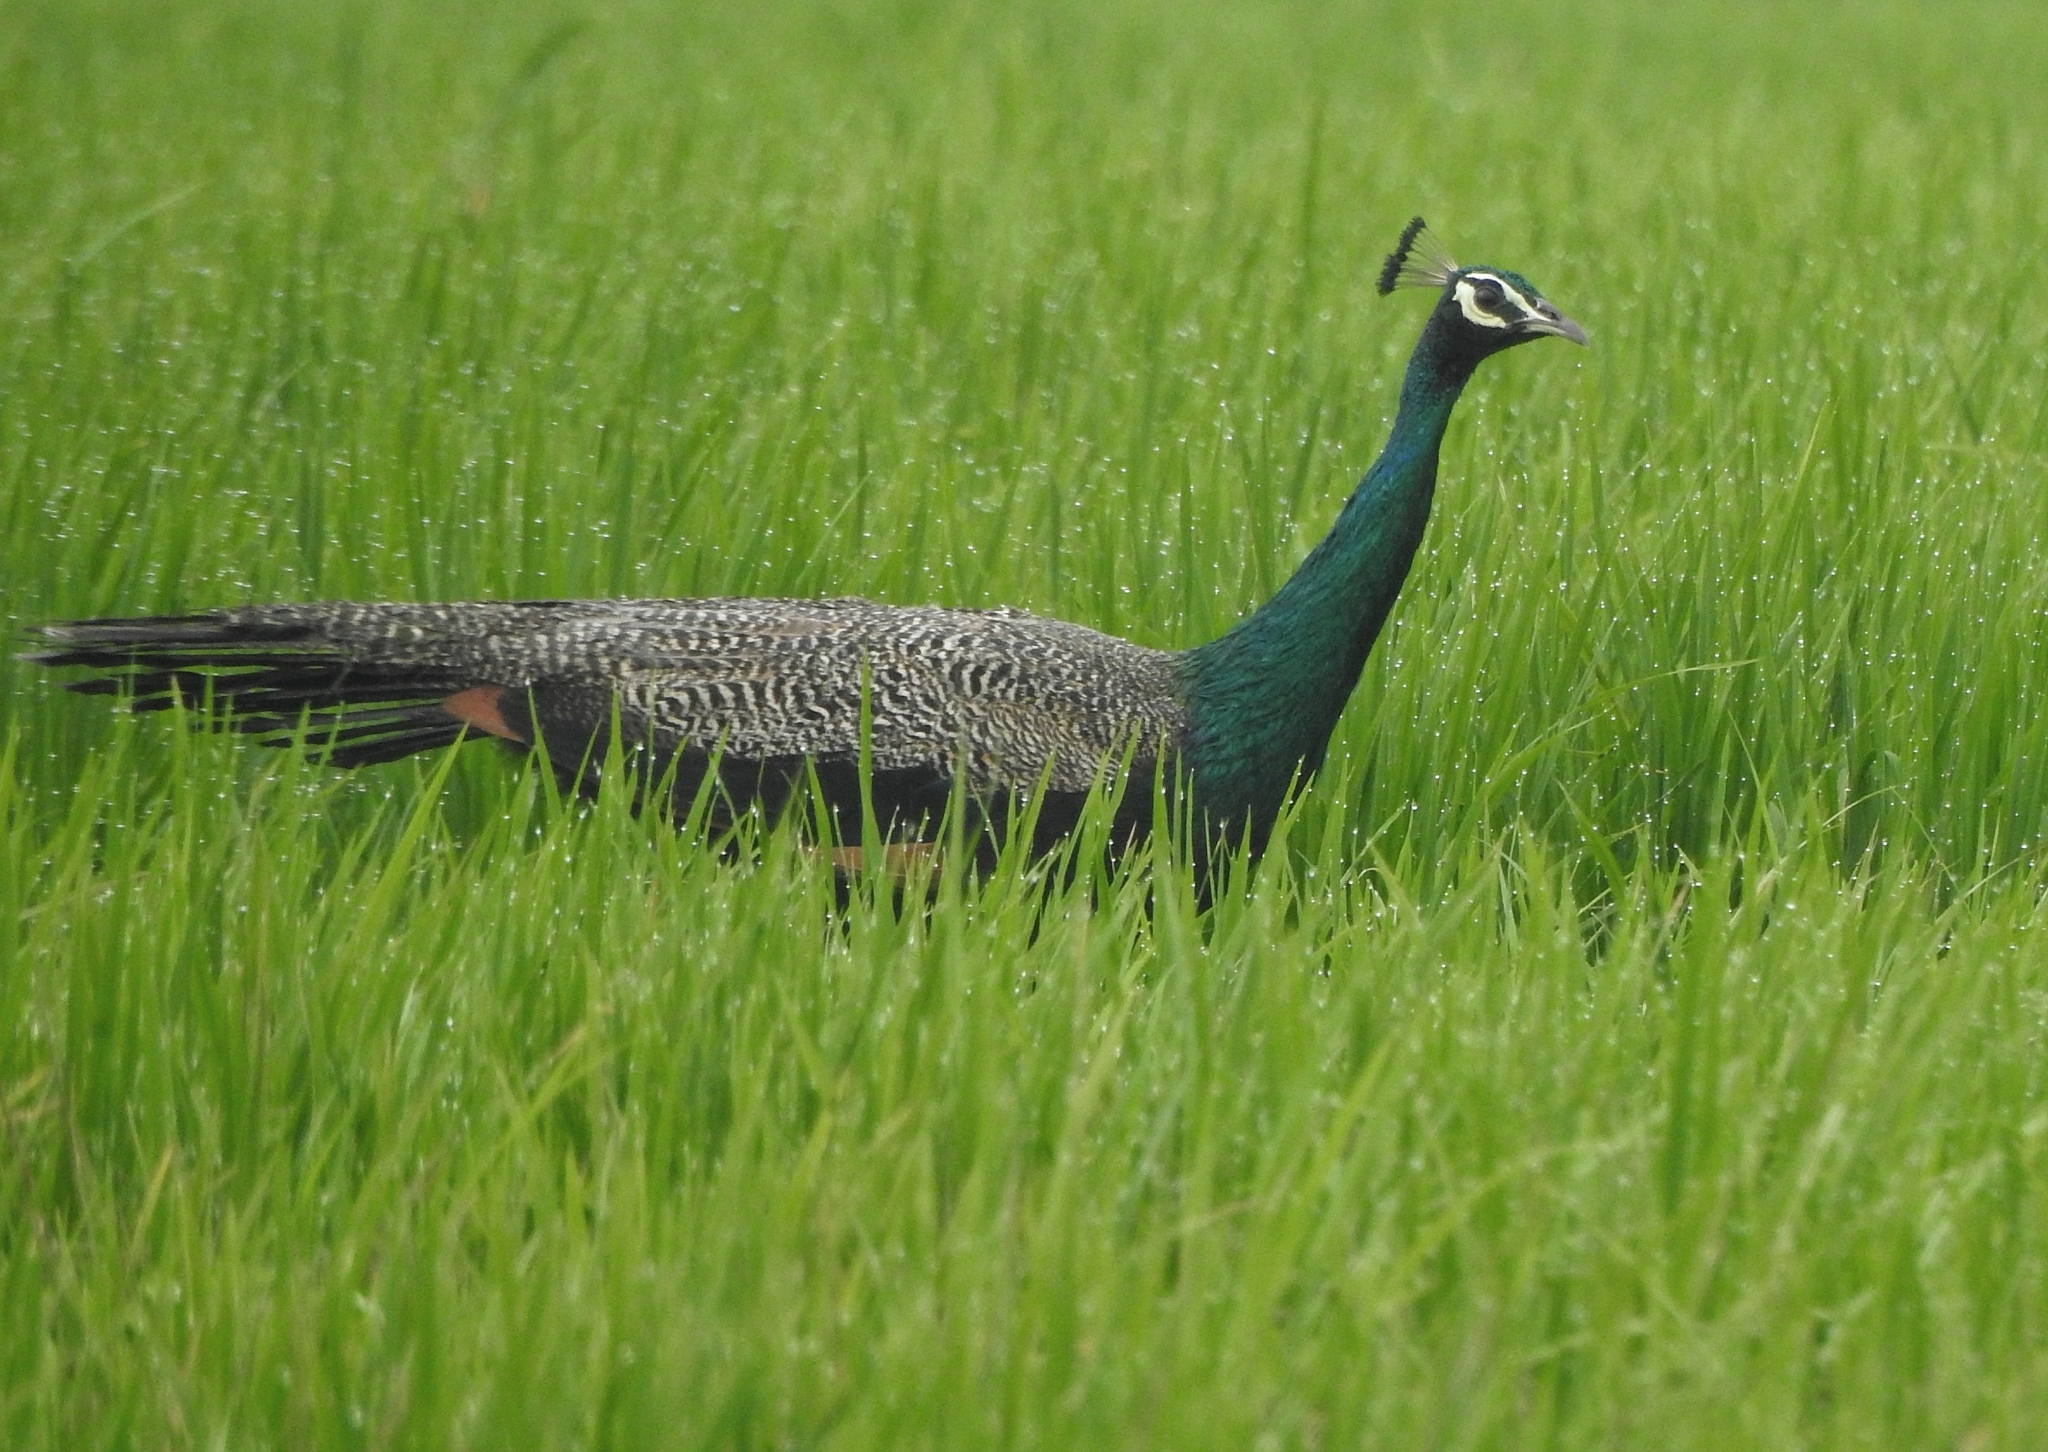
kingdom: Animalia
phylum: Chordata
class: Aves
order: Galliformes
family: Phasianidae
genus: Pavo
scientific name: Pavo cristatus
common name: Indian peafowl
